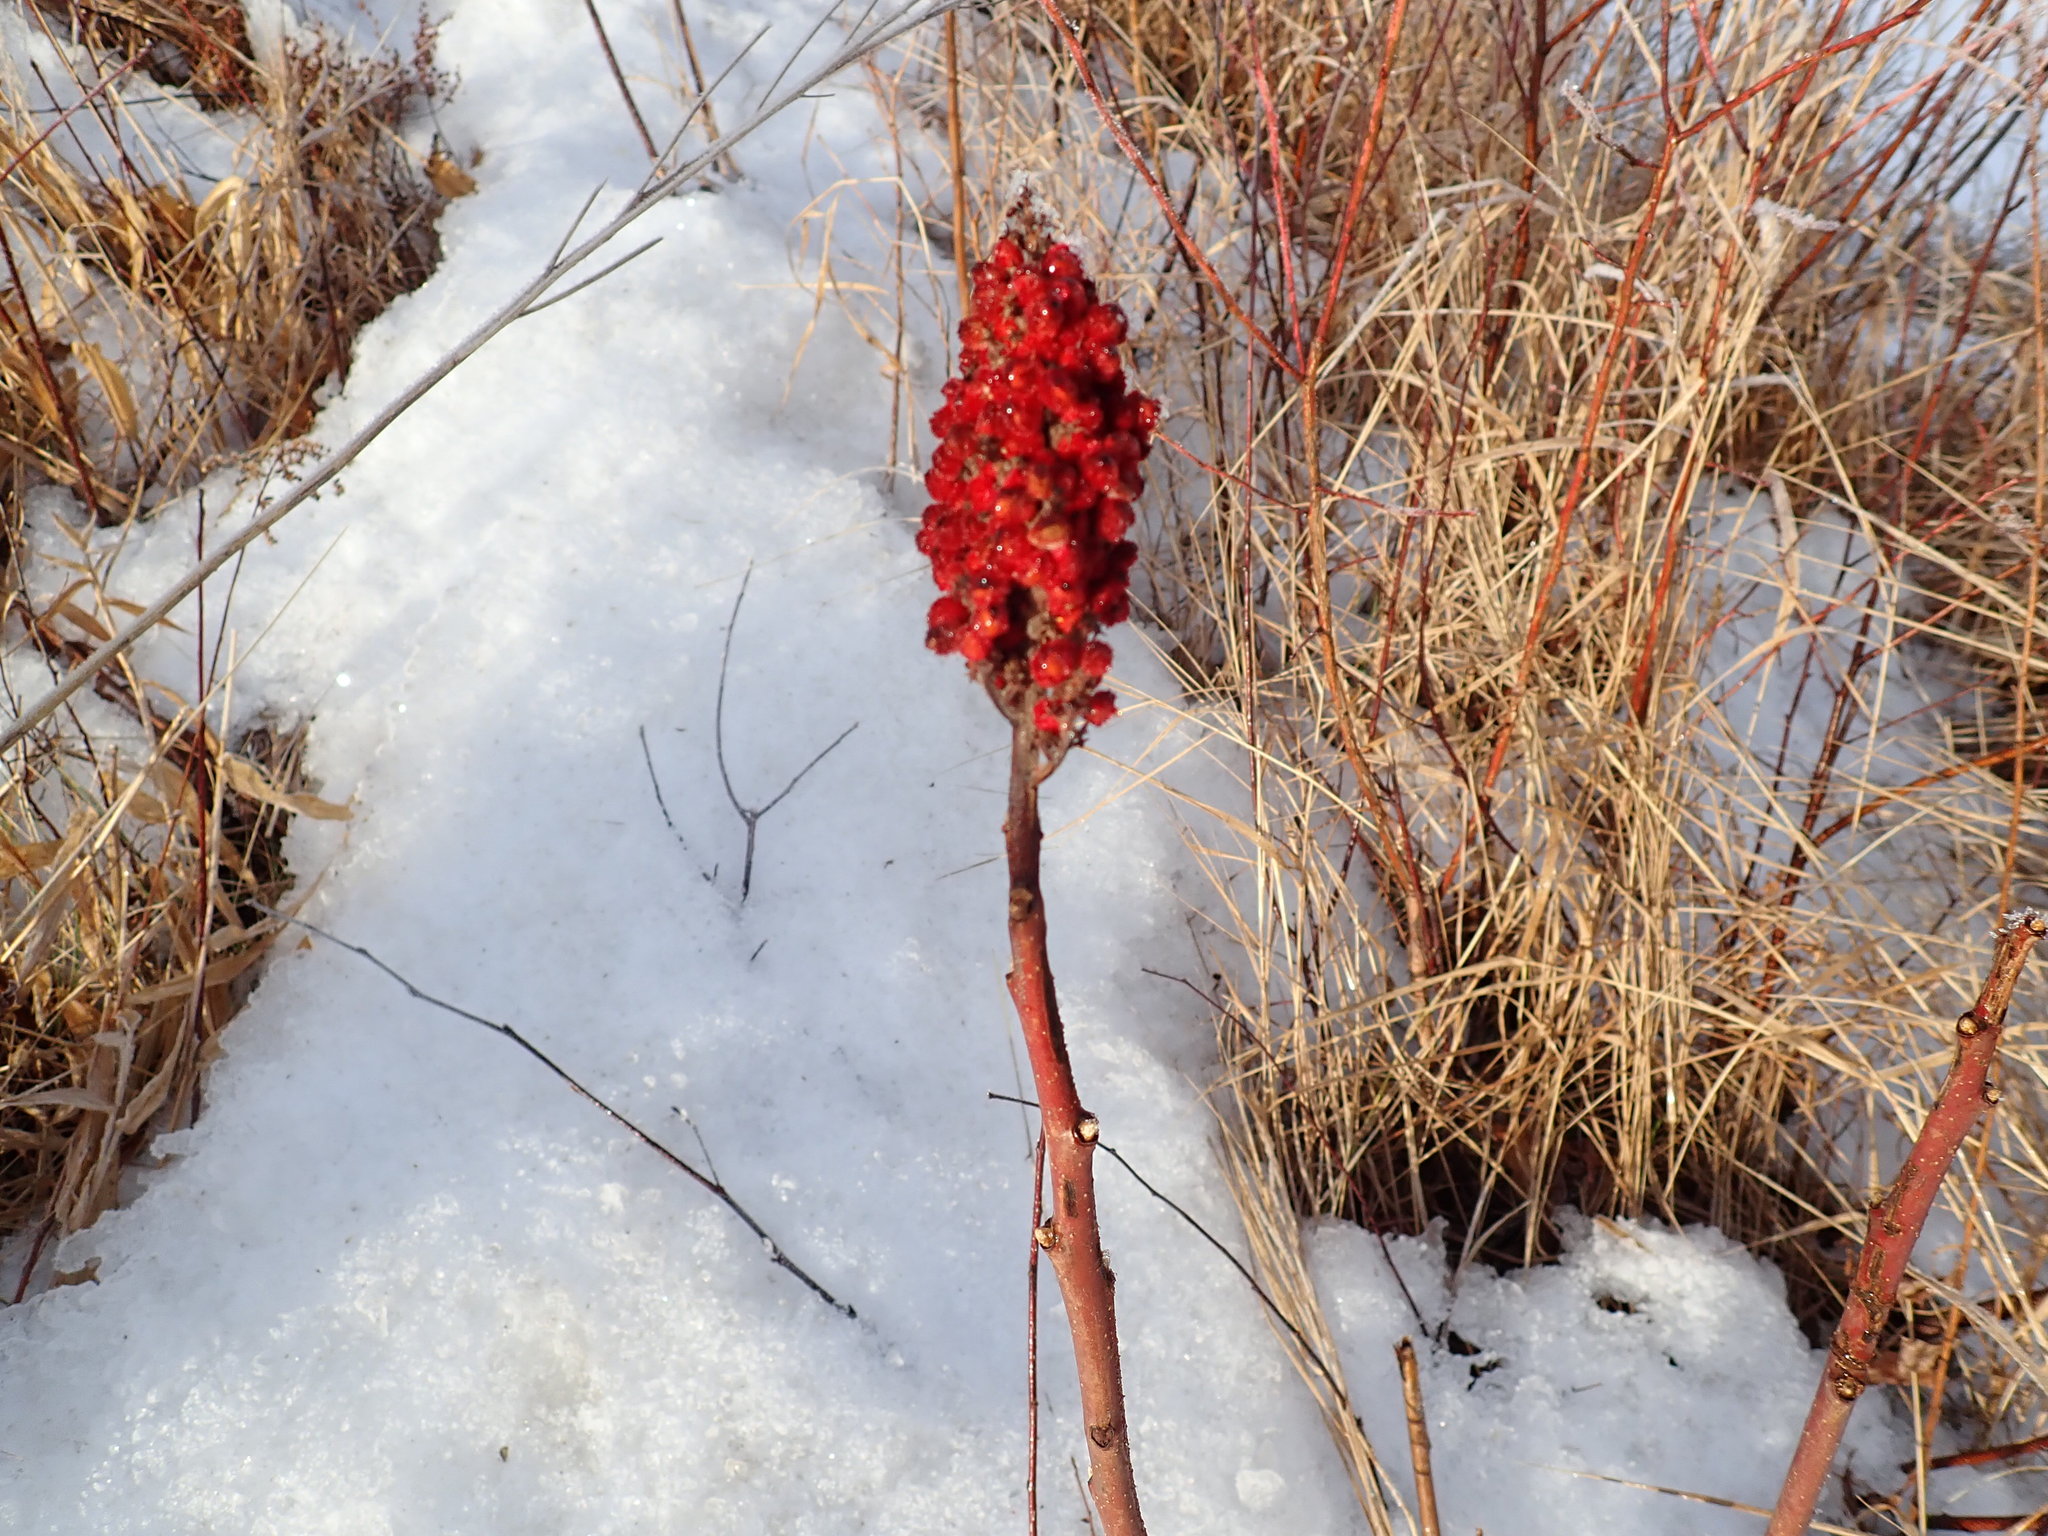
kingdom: Plantae
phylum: Tracheophyta
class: Magnoliopsida
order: Sapindales
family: Anacardiaceae
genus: Rhus
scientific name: Rhus glabra
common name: Scarlet sumac
